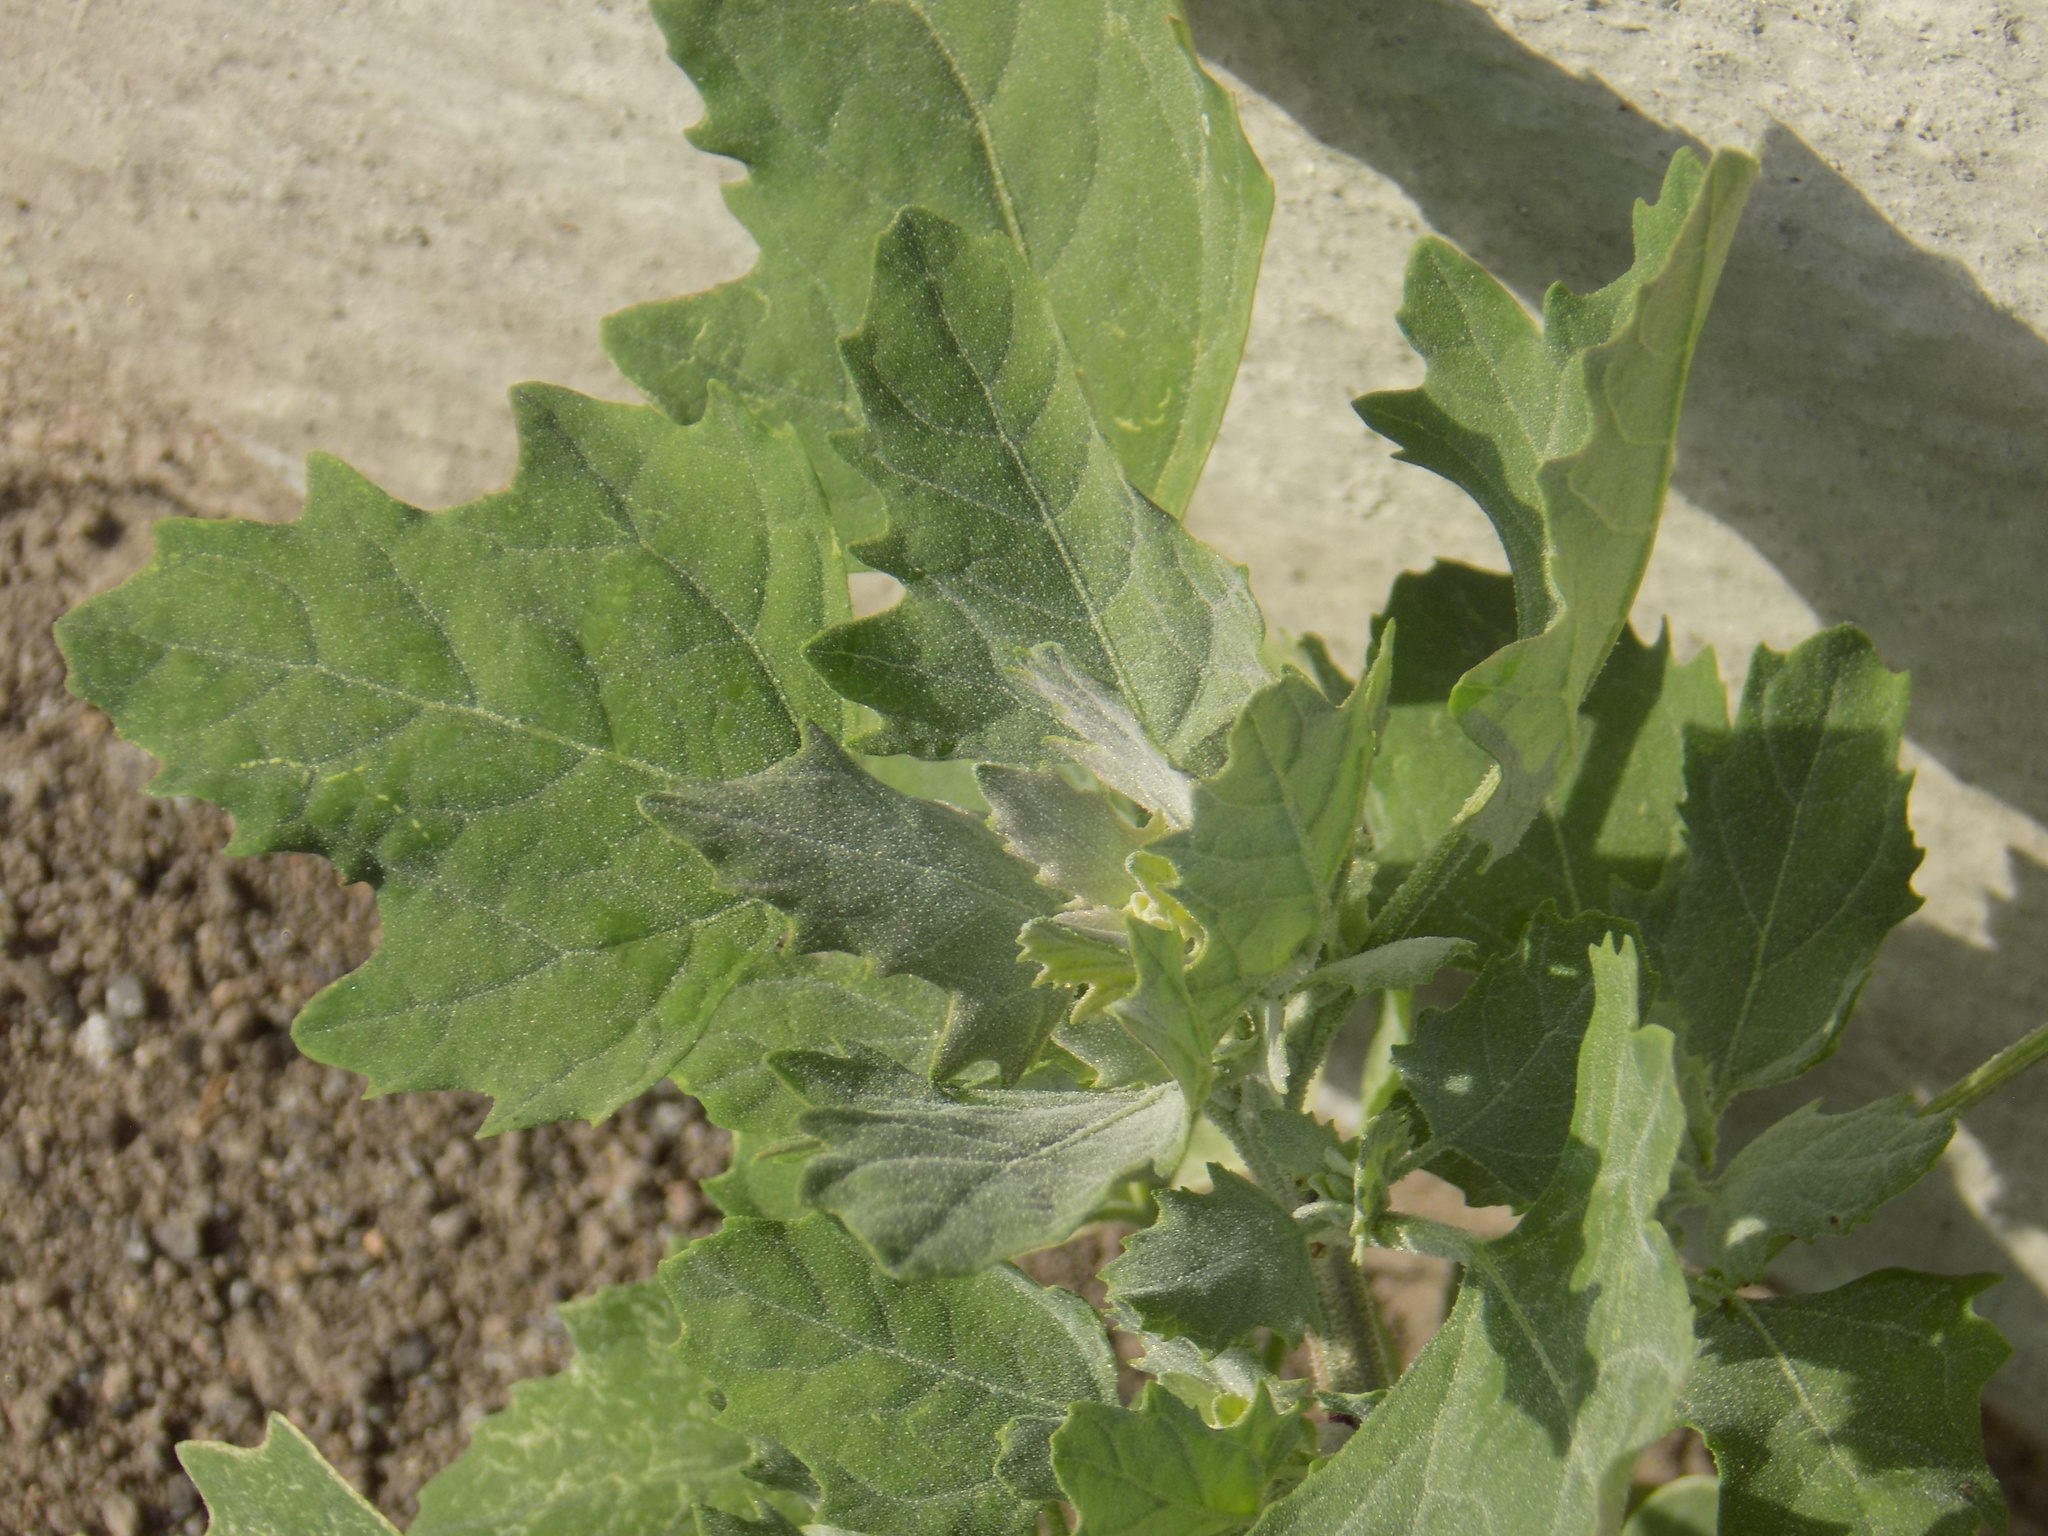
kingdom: Plantae
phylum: Tracheophyta
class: Magnoliopsida
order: Caryophyllales
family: Amaranthaceae
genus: Chenopodium
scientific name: Chenopodium album
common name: Fat-hen
